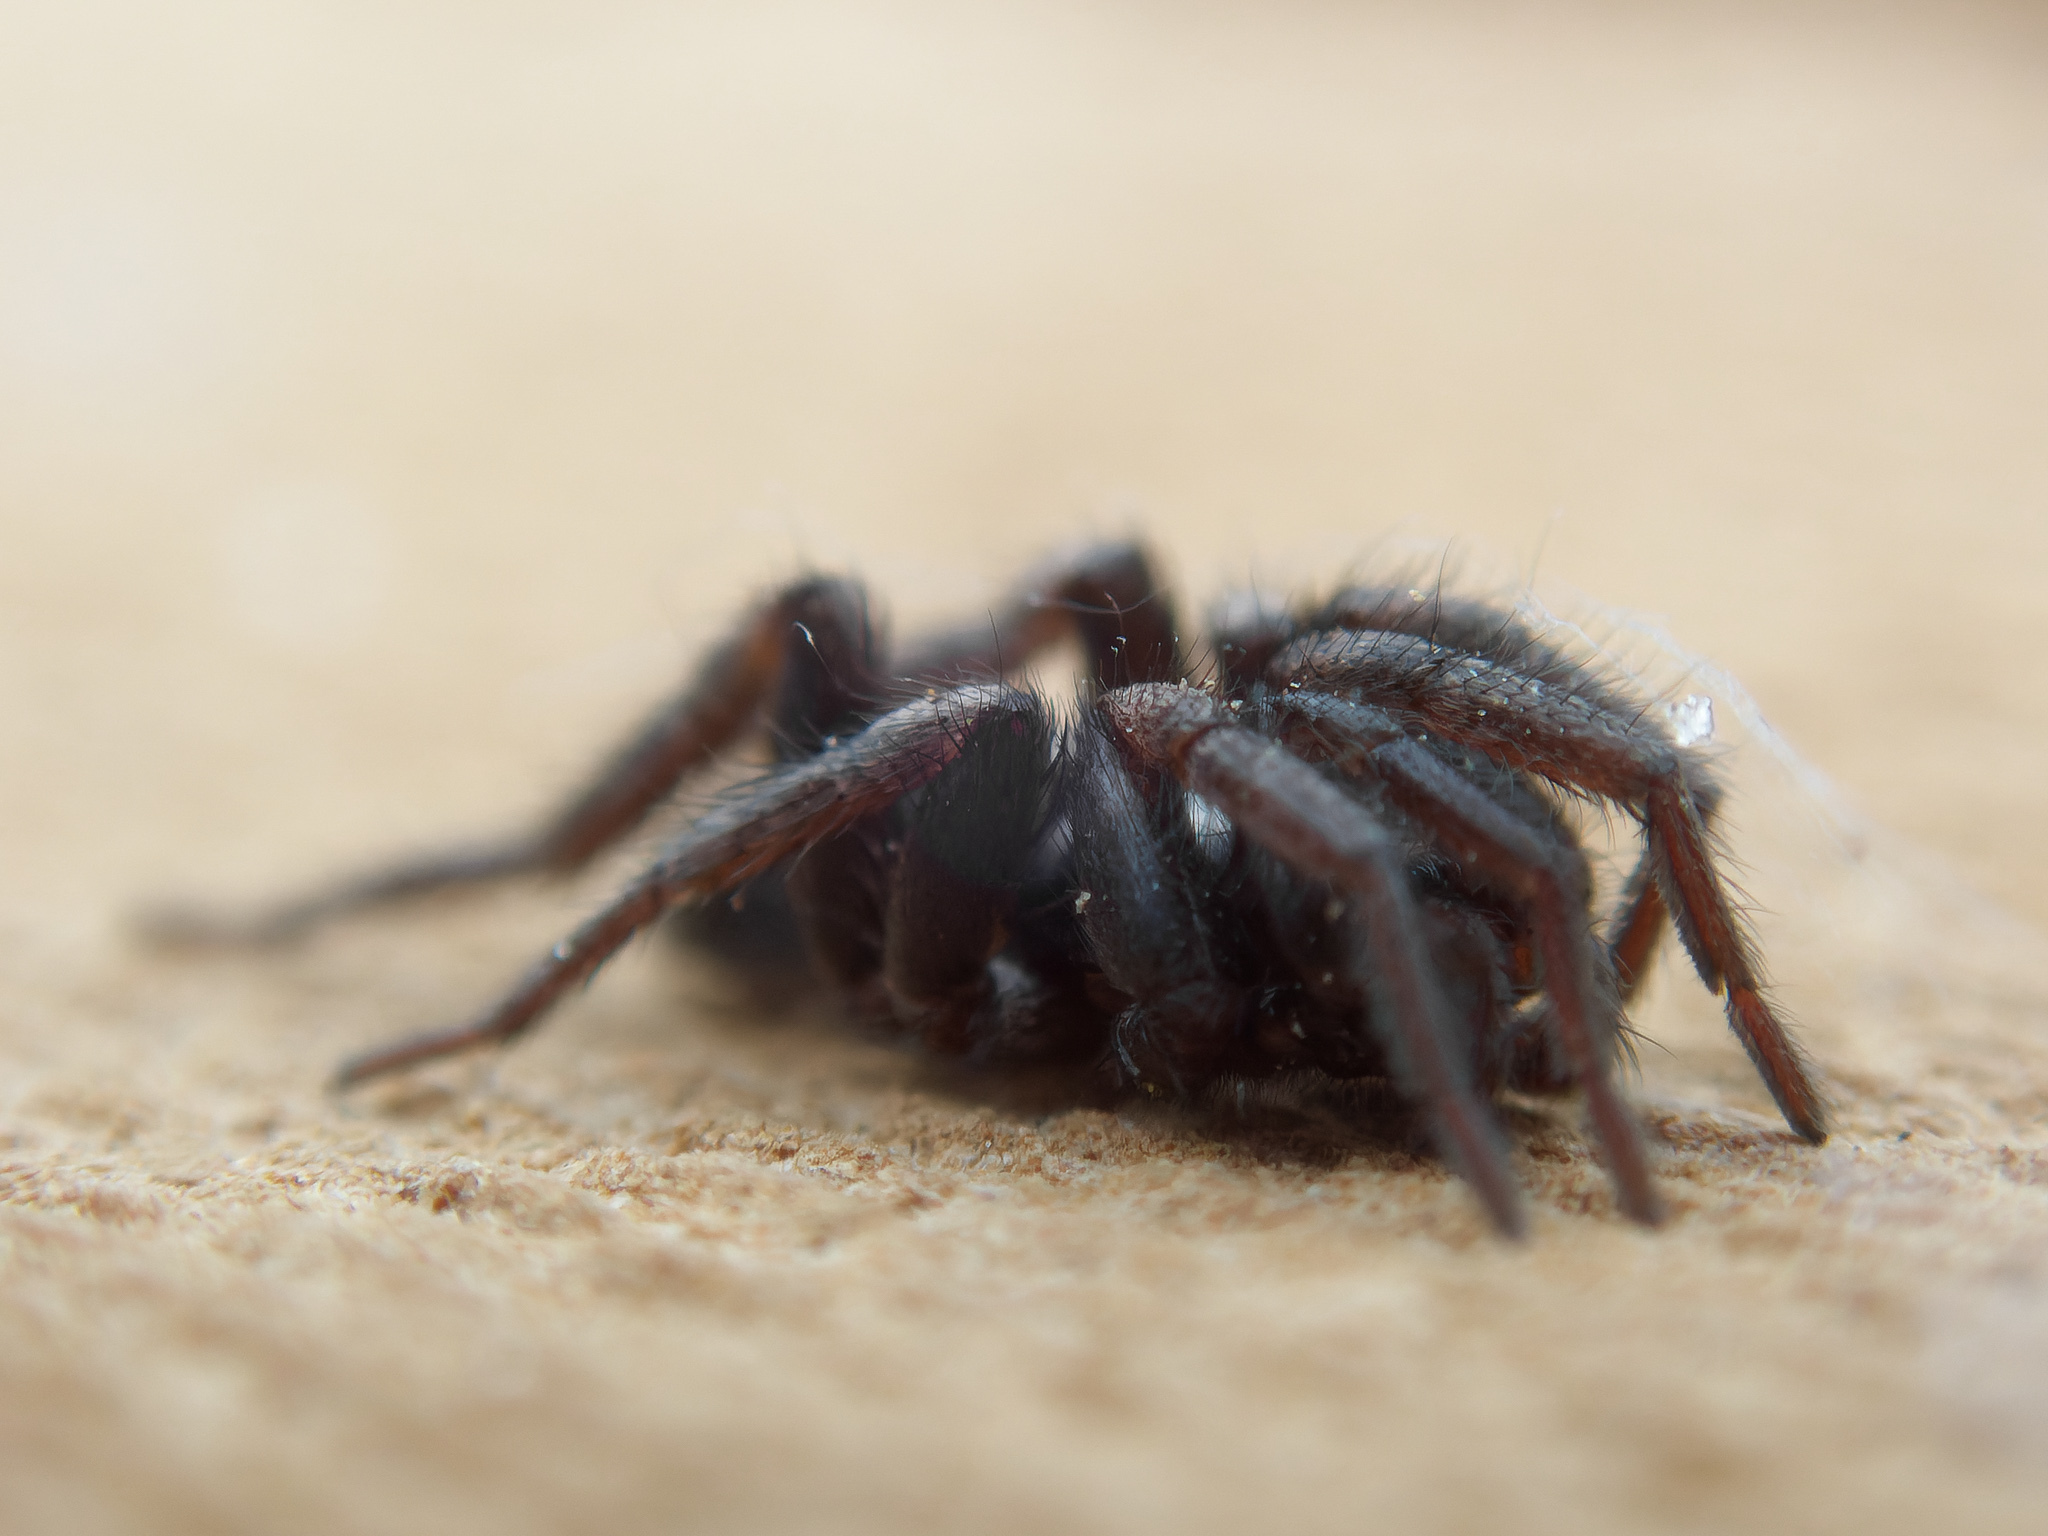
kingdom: Animalia
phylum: Arthropoda
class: Arachnida
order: Araneae
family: Gnaphosidae
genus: Herpyllus
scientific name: Herpyllus ecclesiasticus
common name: Eastern parson spider
